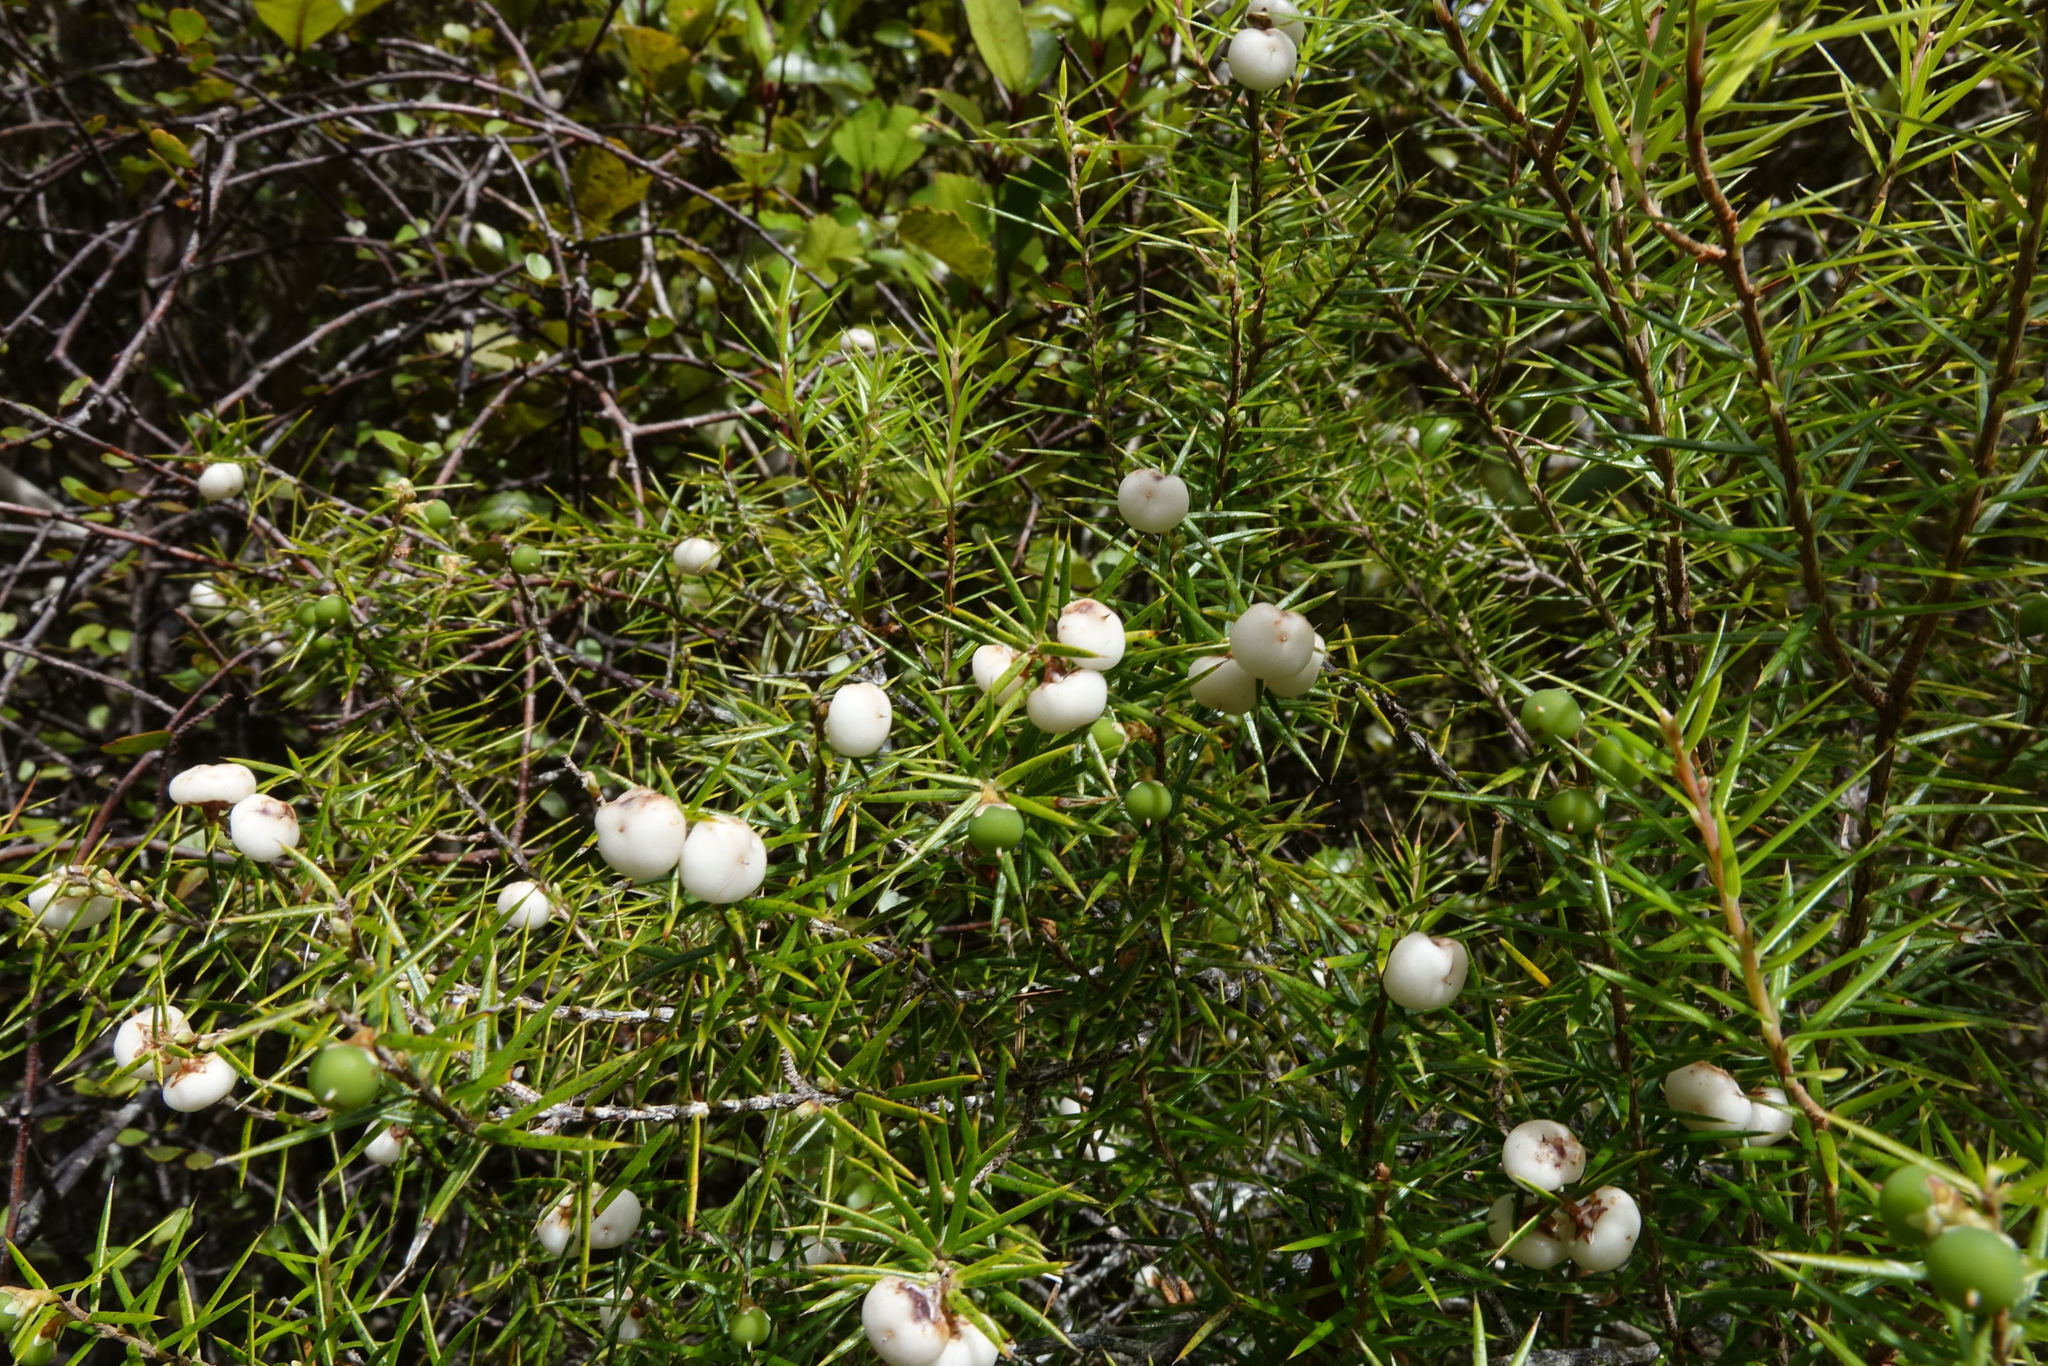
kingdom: Plantae
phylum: Tracheophyta
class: Magnoliopsida
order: Ericales
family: Ericaceae
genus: Leptecophylla
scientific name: Leptecophylla juniperina
